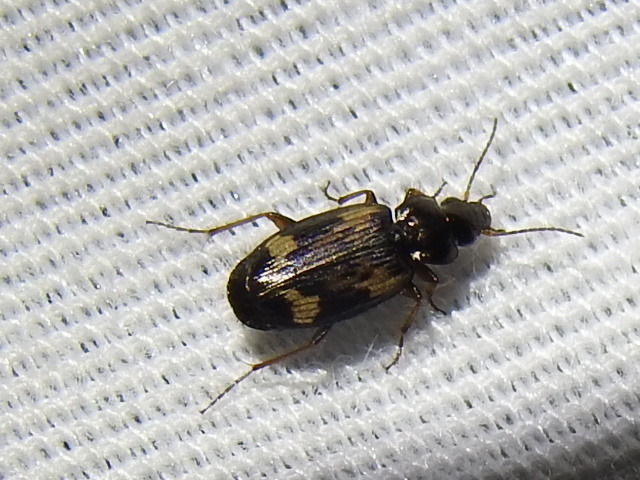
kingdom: Animalia
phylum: Arthropoda
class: Insecta
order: Coleoptera
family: Carabidae
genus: Tetragonoderus
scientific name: Tetragonoderus intersectus
